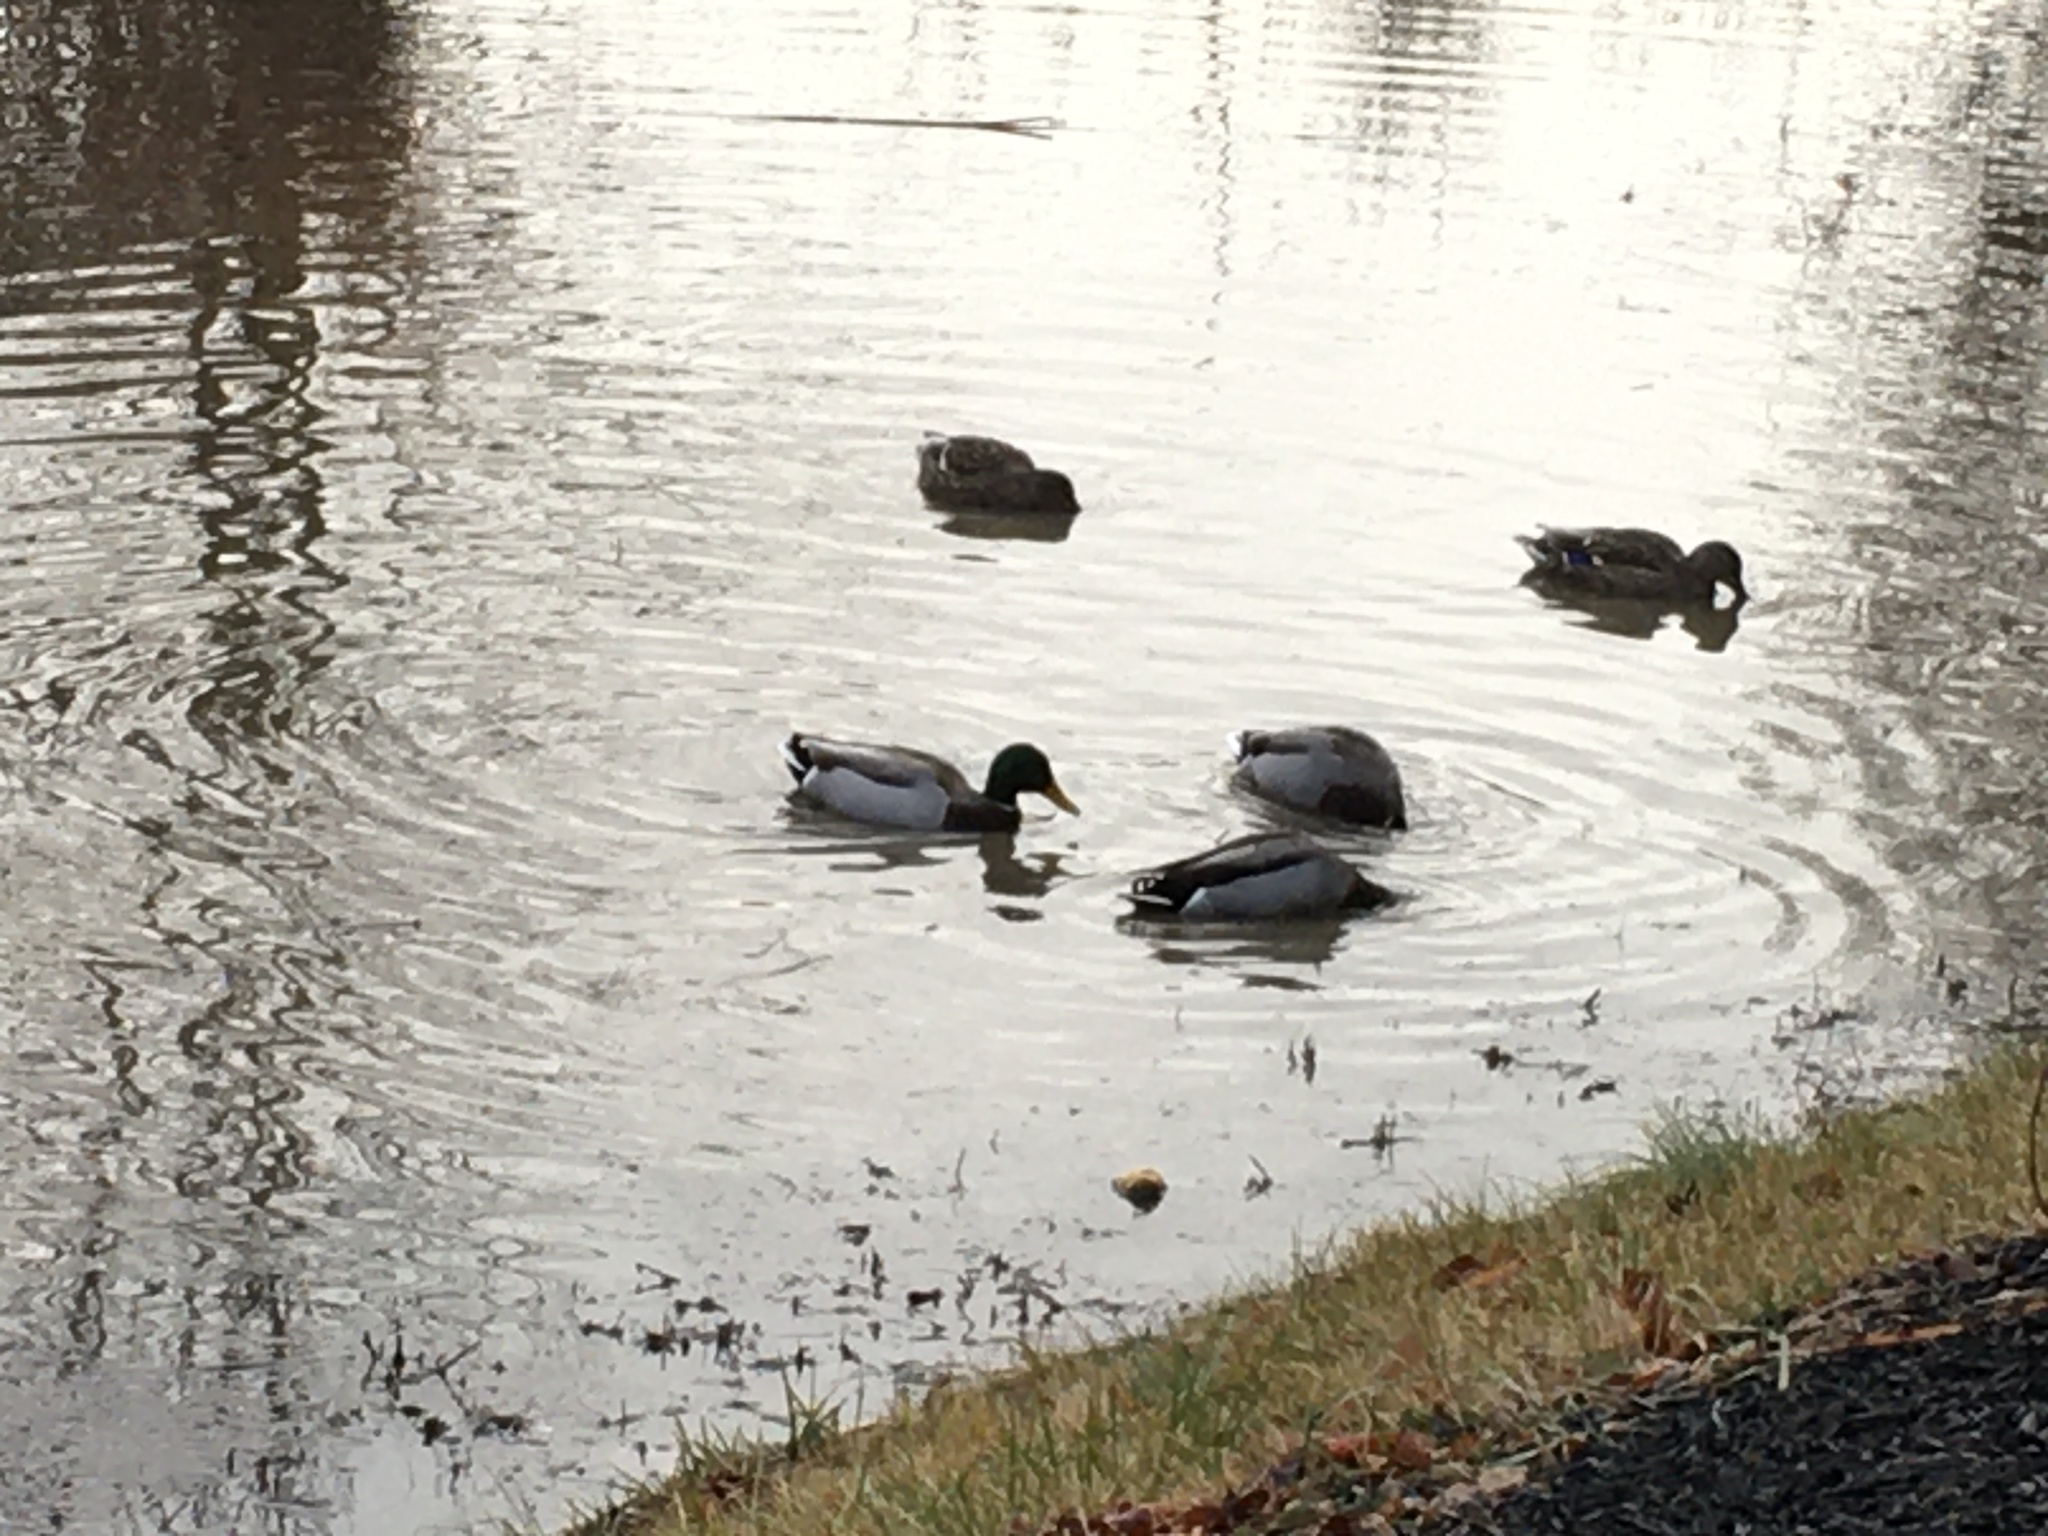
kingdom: Animalia
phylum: Chordata
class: Aves
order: Anseriformes
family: Anatidae
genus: Anas
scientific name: Anas platyrhynchos
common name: Mallard
